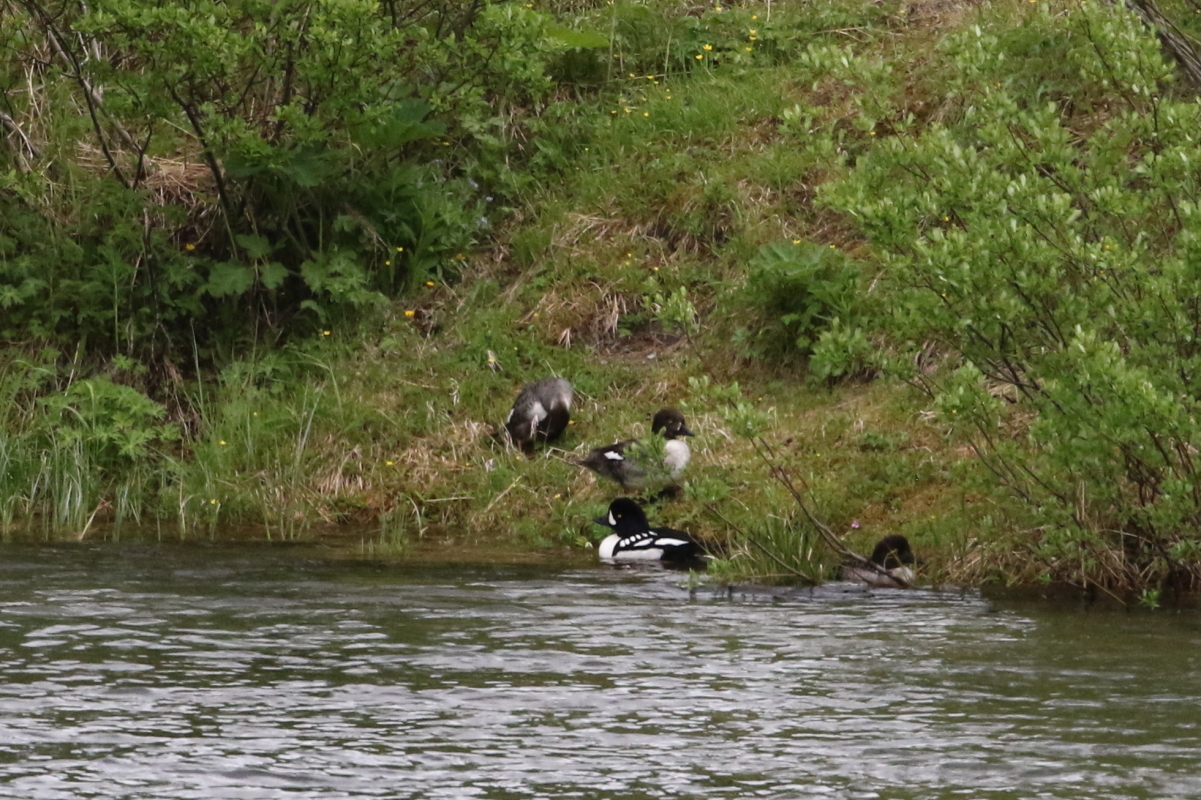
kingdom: Animalia
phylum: Chordata
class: Aves
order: Anseriformes
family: Anatidae
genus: Bucephala
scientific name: Bucephala islandica
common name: Barrow's goldeneye
